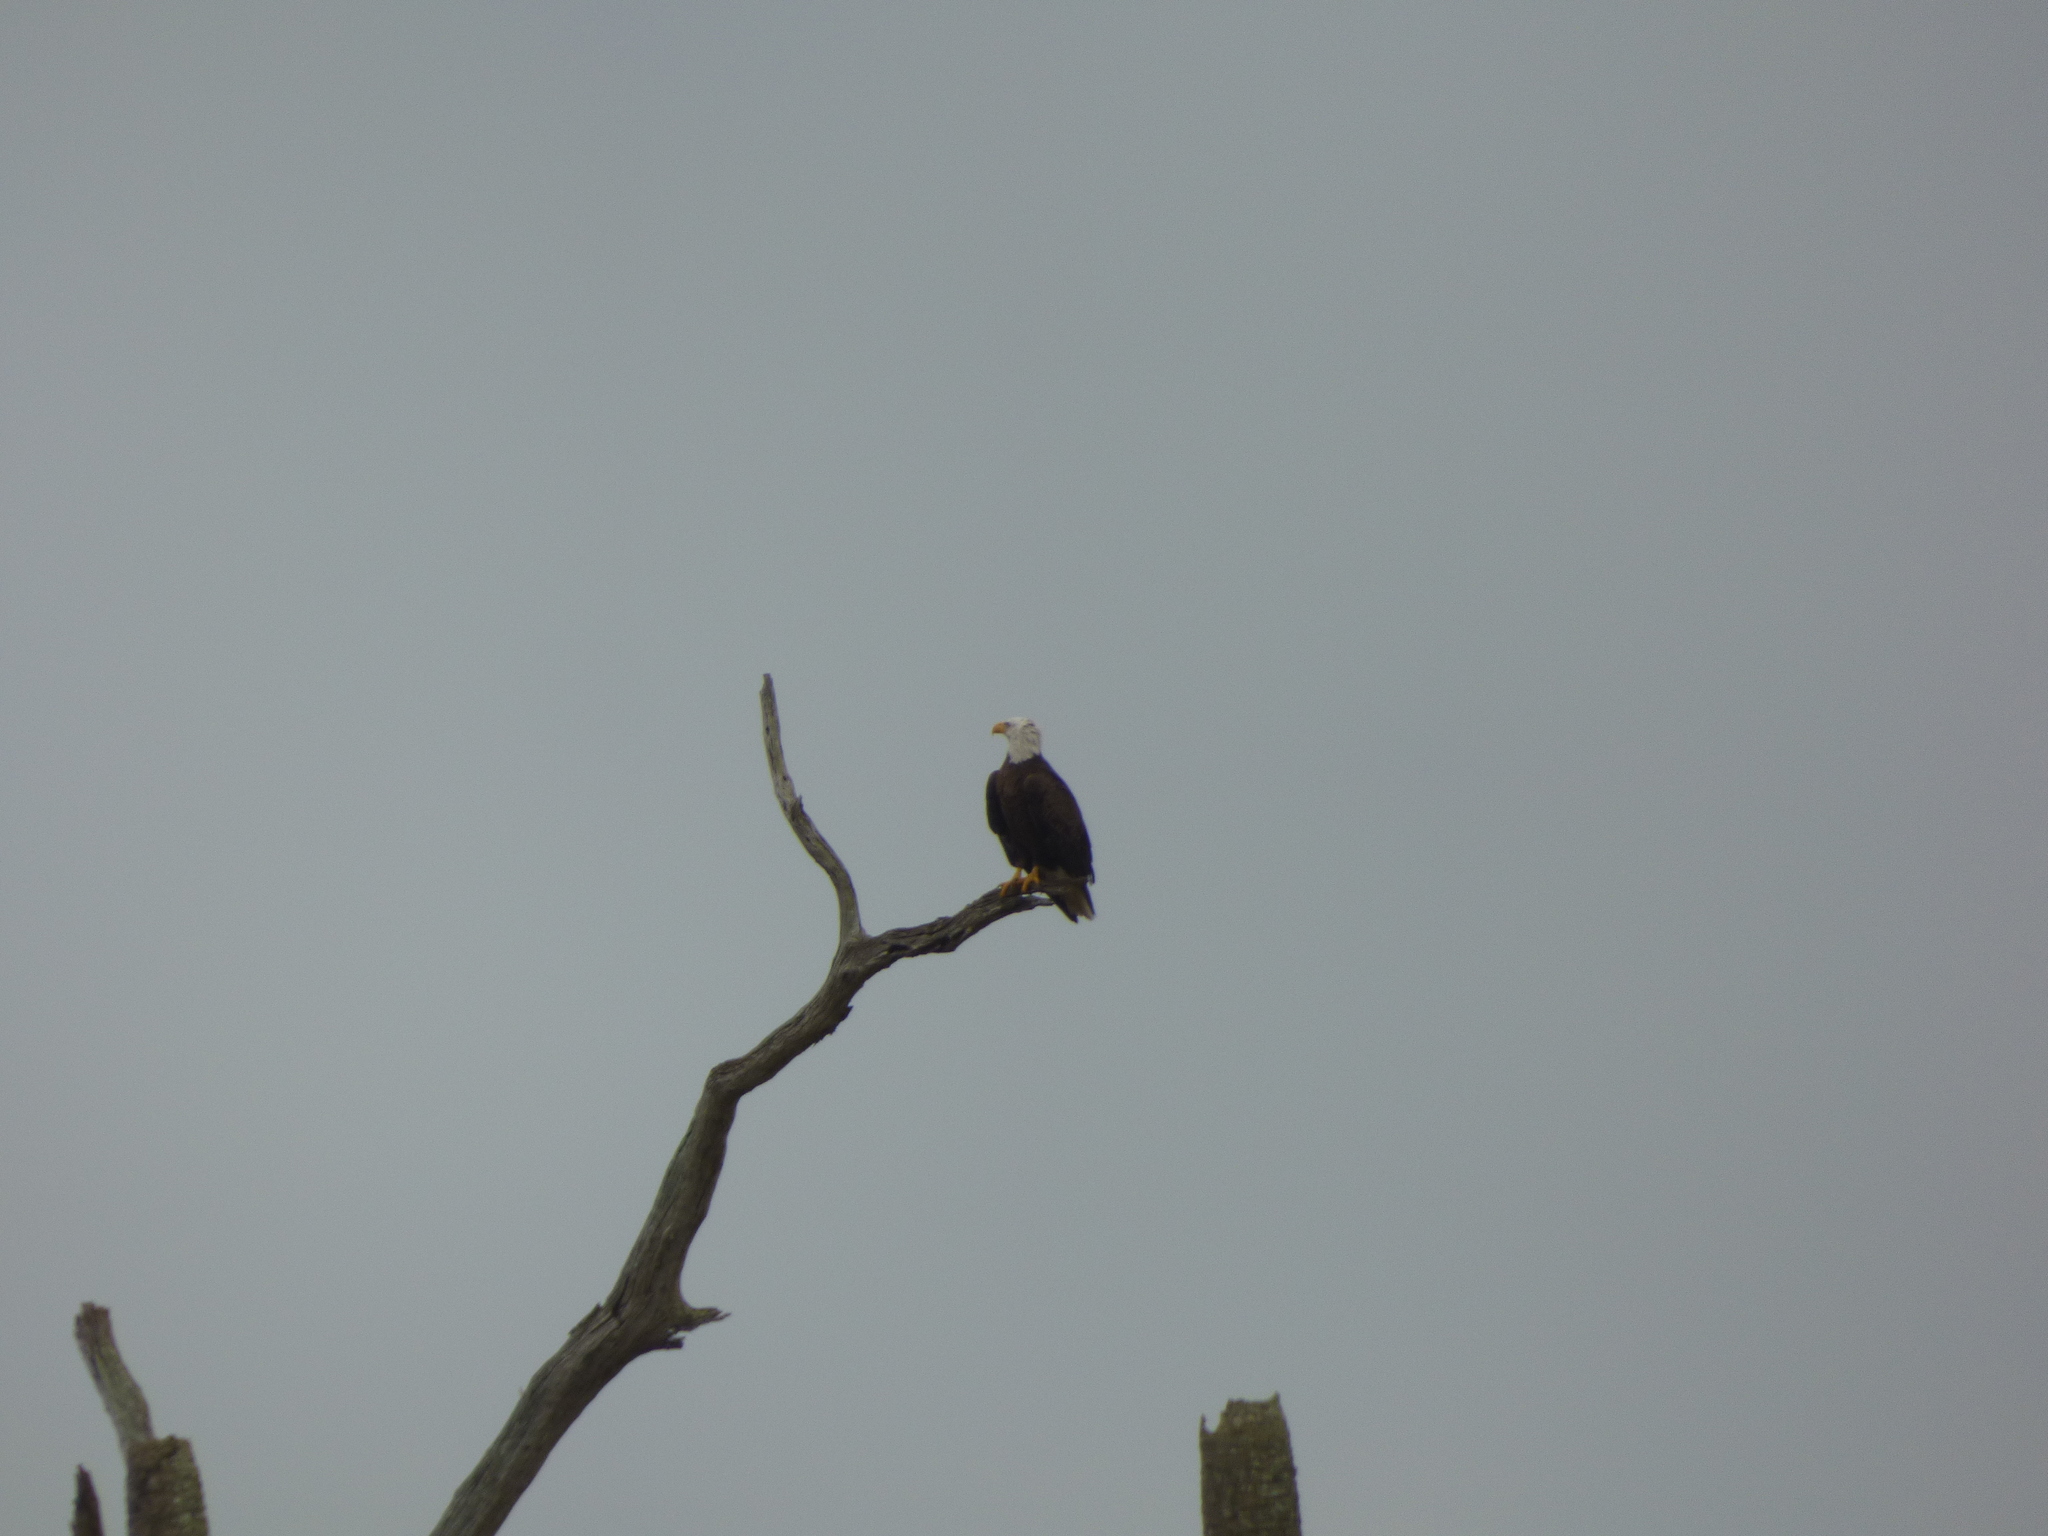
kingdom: Animalia
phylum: Chordata
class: Aves
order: Accipitriformes
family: Accipitridae
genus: Haliaeetus
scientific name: Haliaeetus leucocephalus
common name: Bald eagle
